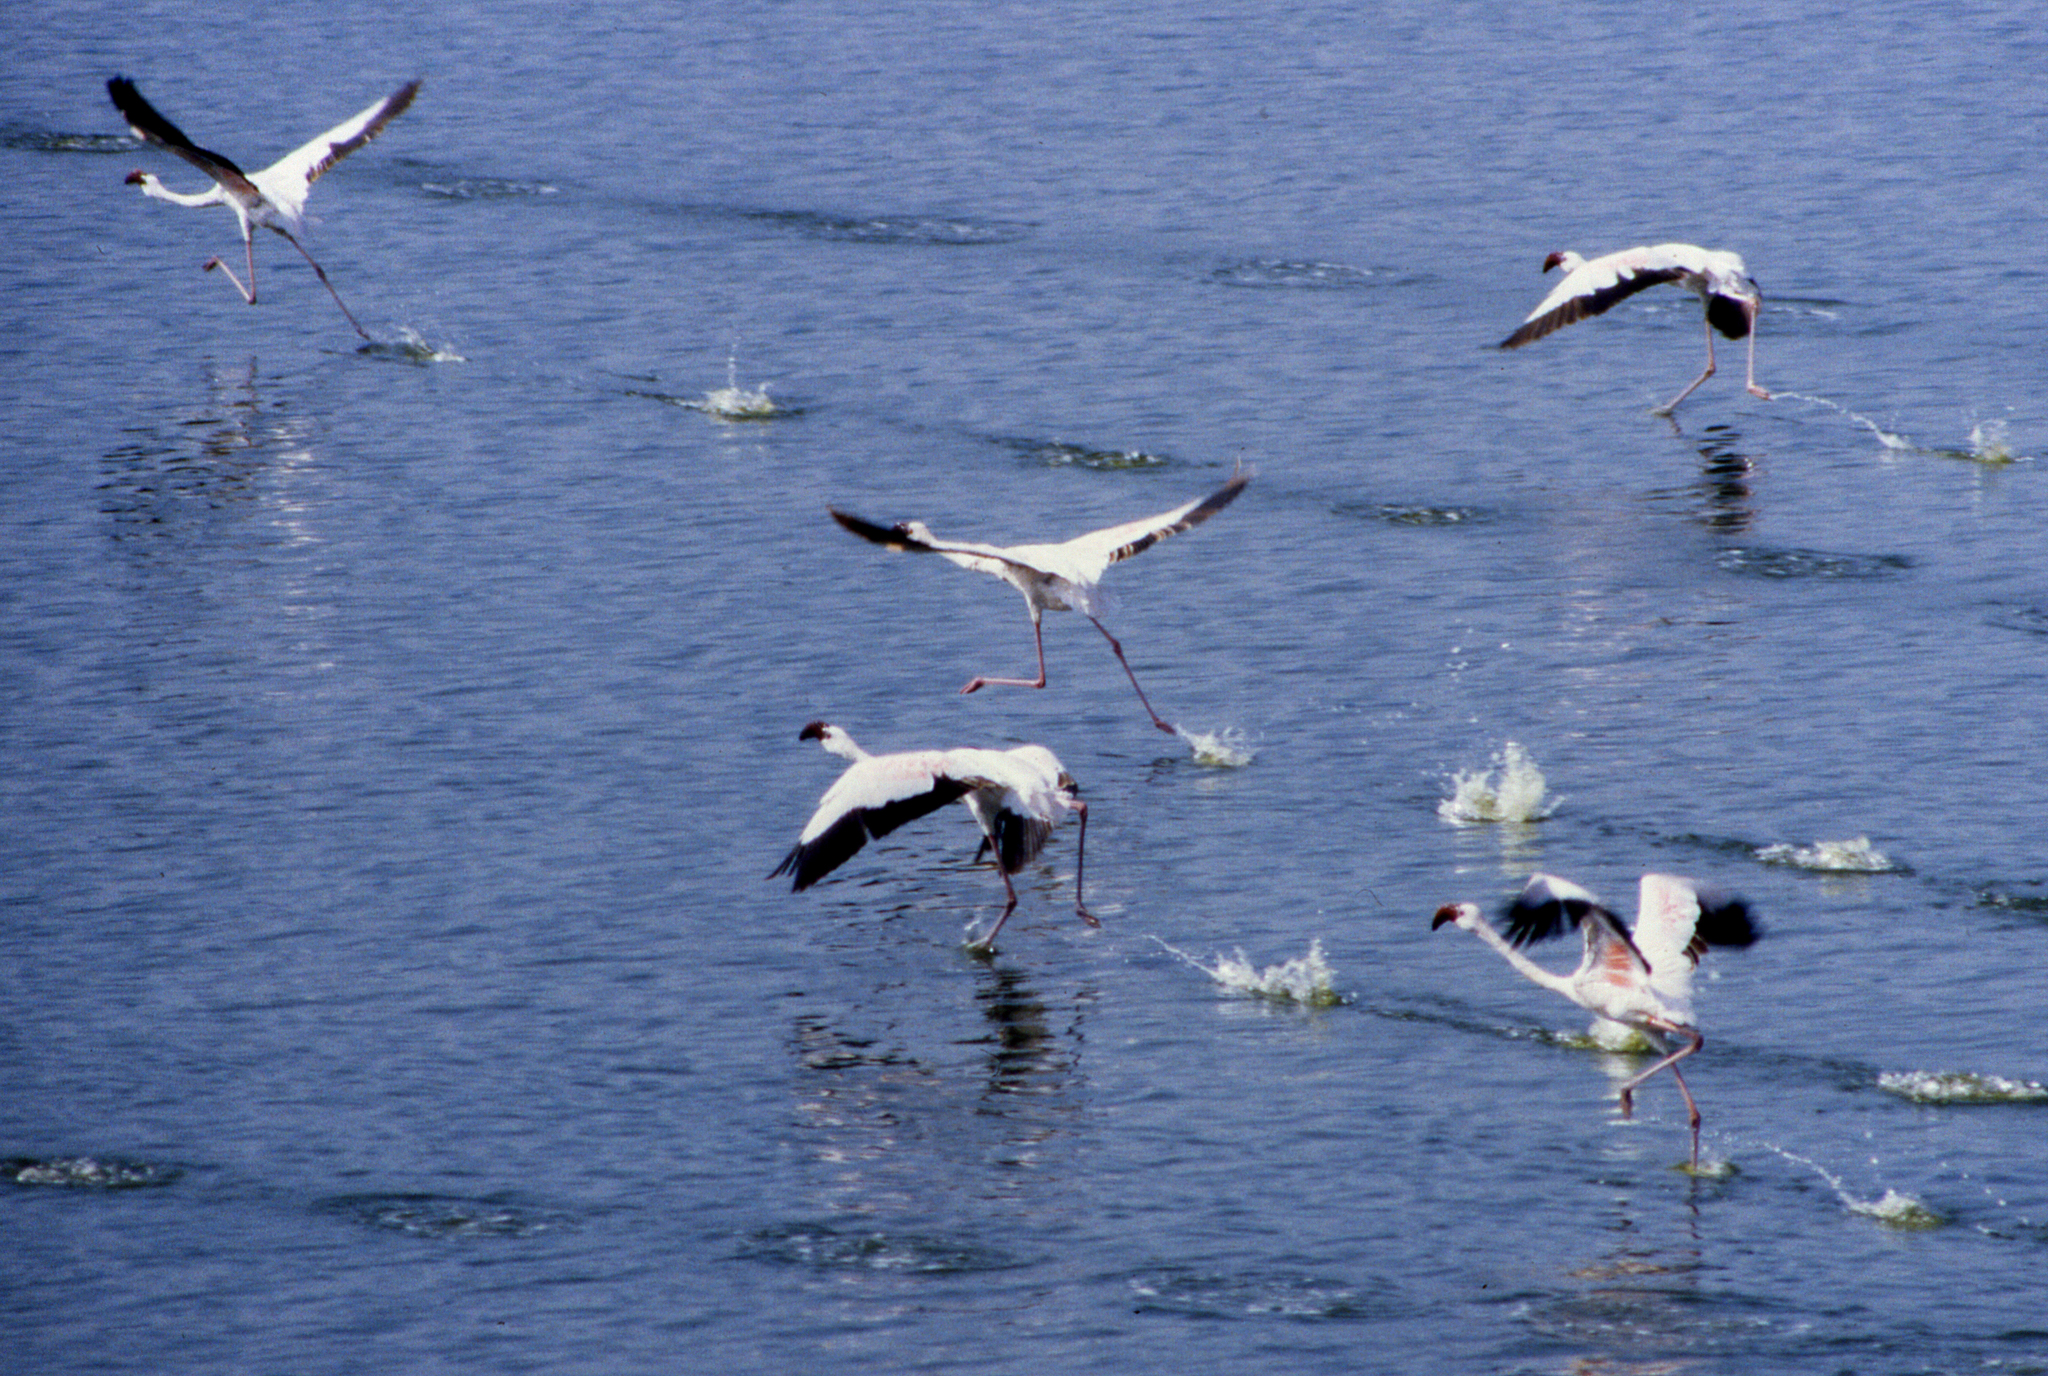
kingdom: Animalia
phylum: Chordata
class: Aves
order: Phoenicopteriformes
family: Phoenicopteridae
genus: Phoeniconaias
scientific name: Phoeniconaias minor
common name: Lesser flamingo
